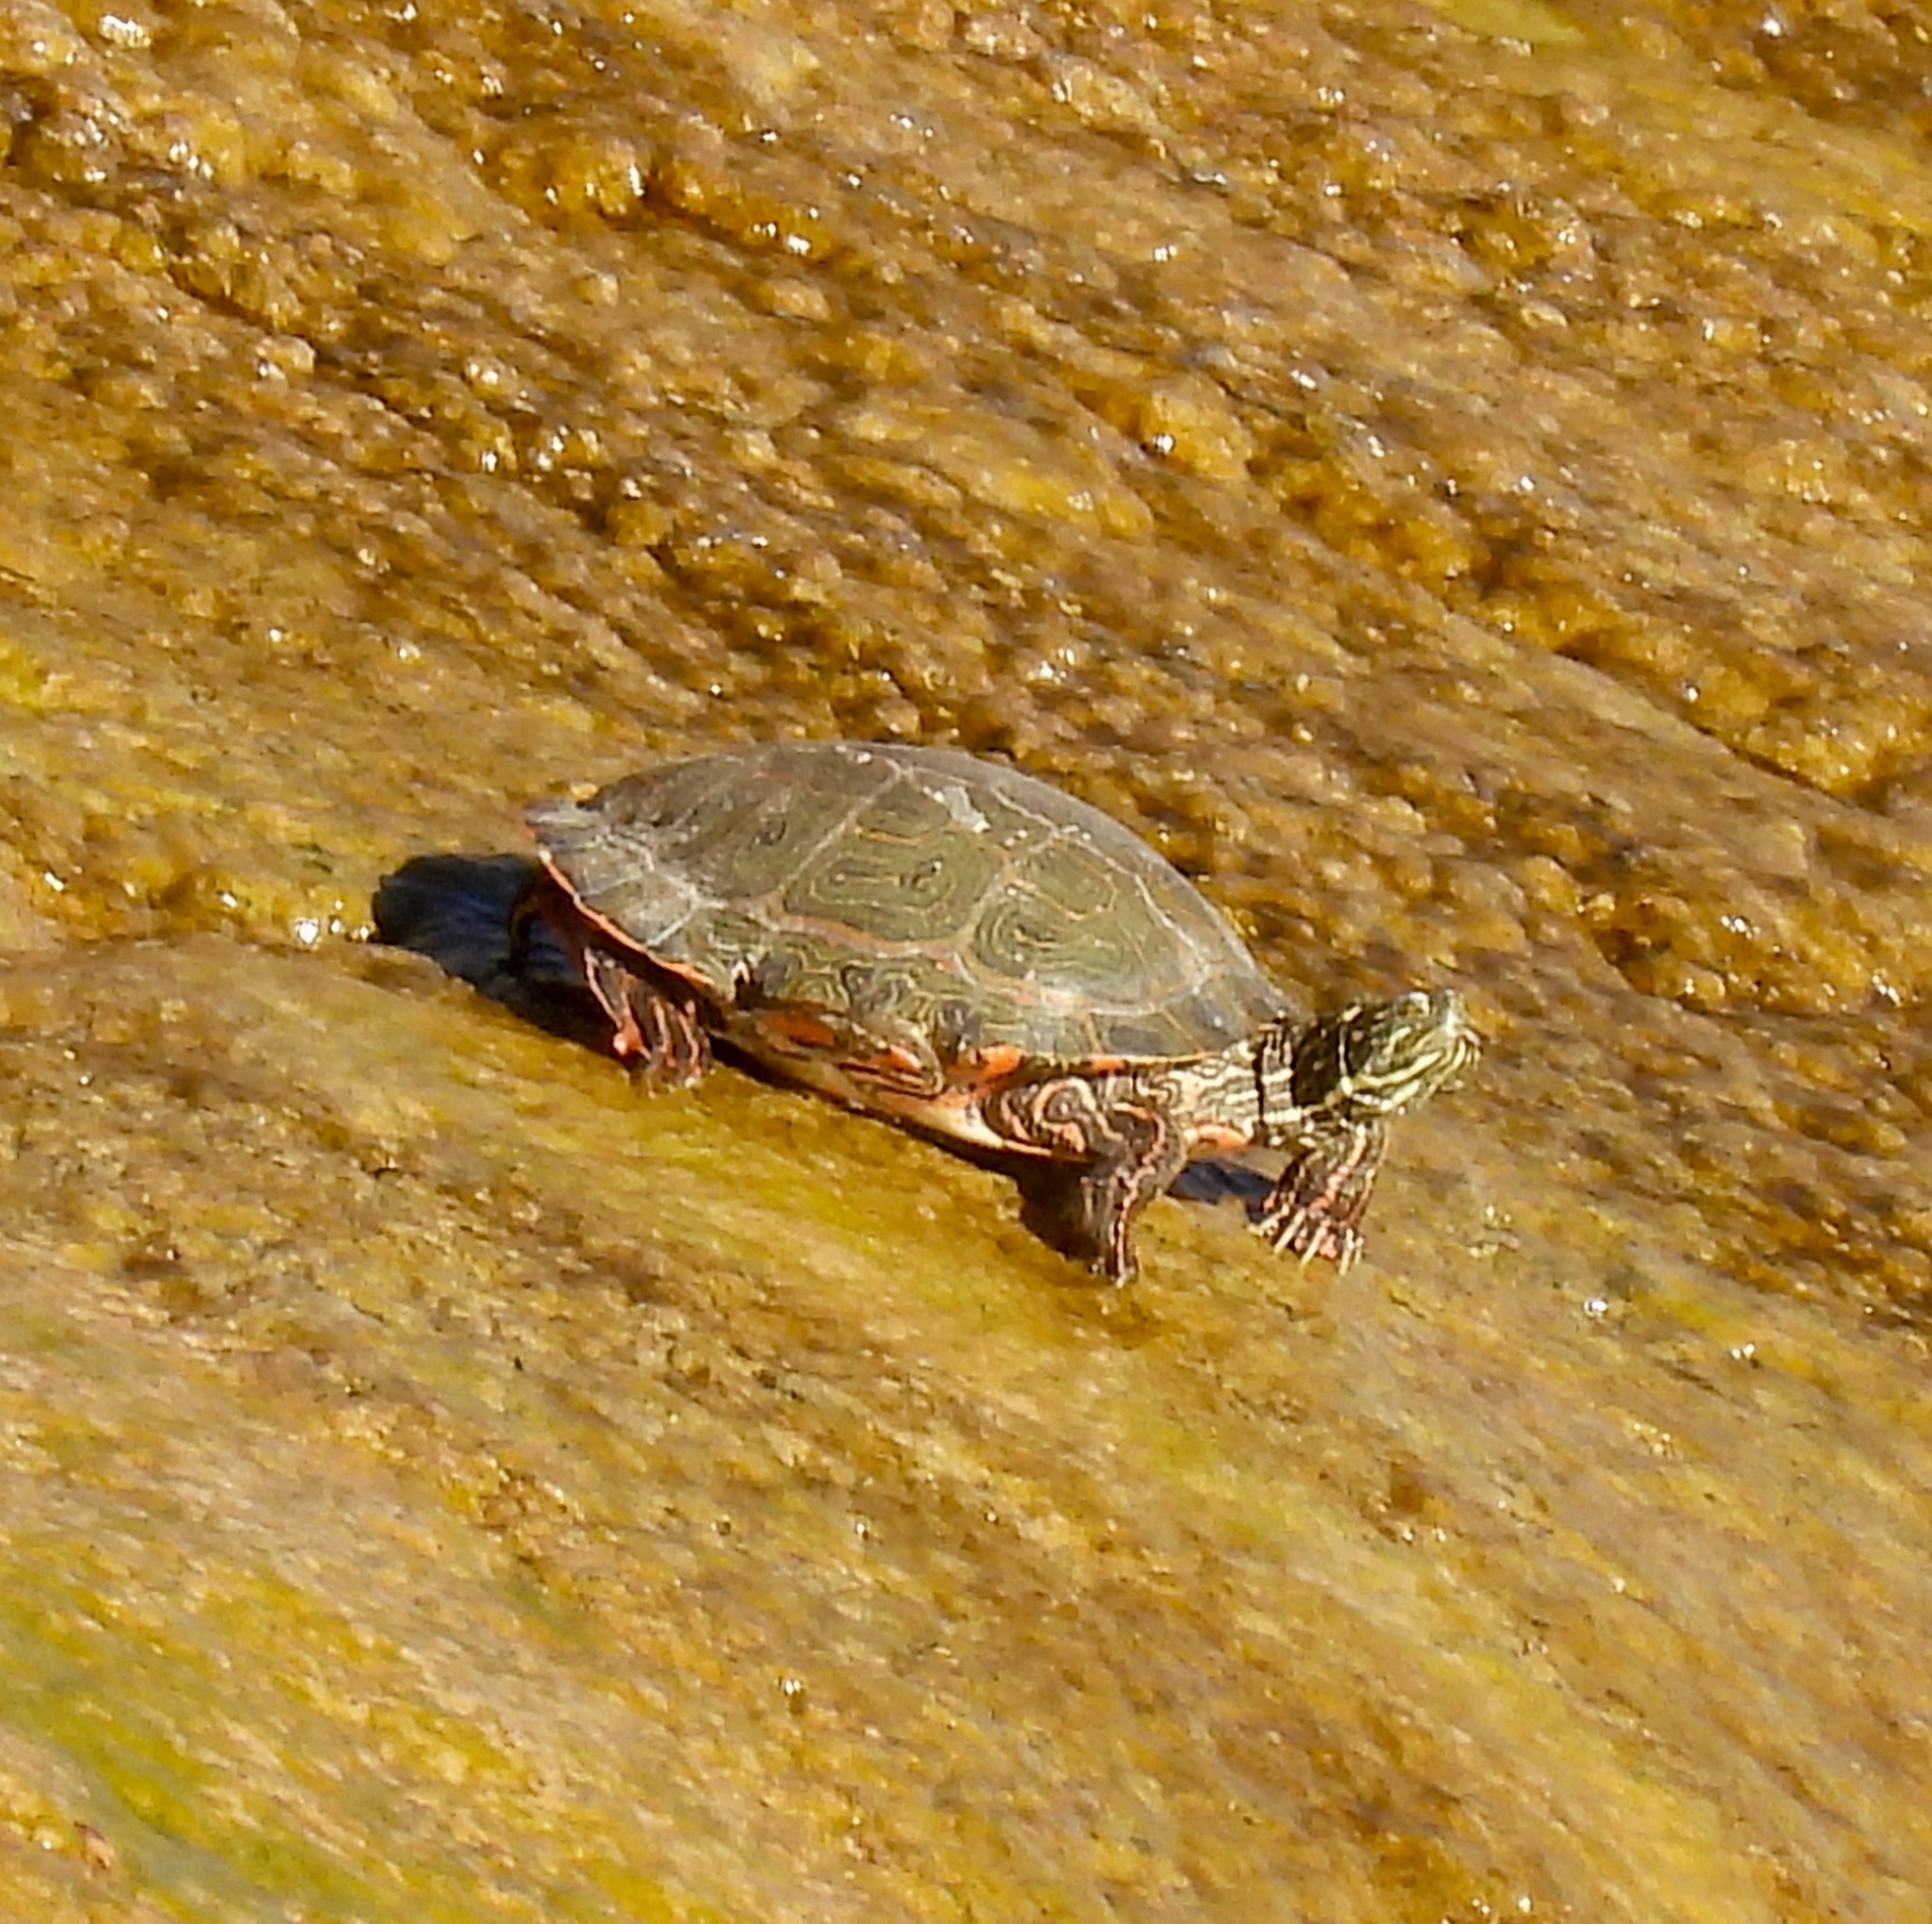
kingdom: Animalia
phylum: Chordata
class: Testudines
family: Emydidae
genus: Pseudemys
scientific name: Pseudemys gorzugi
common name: Rio grande cooter
